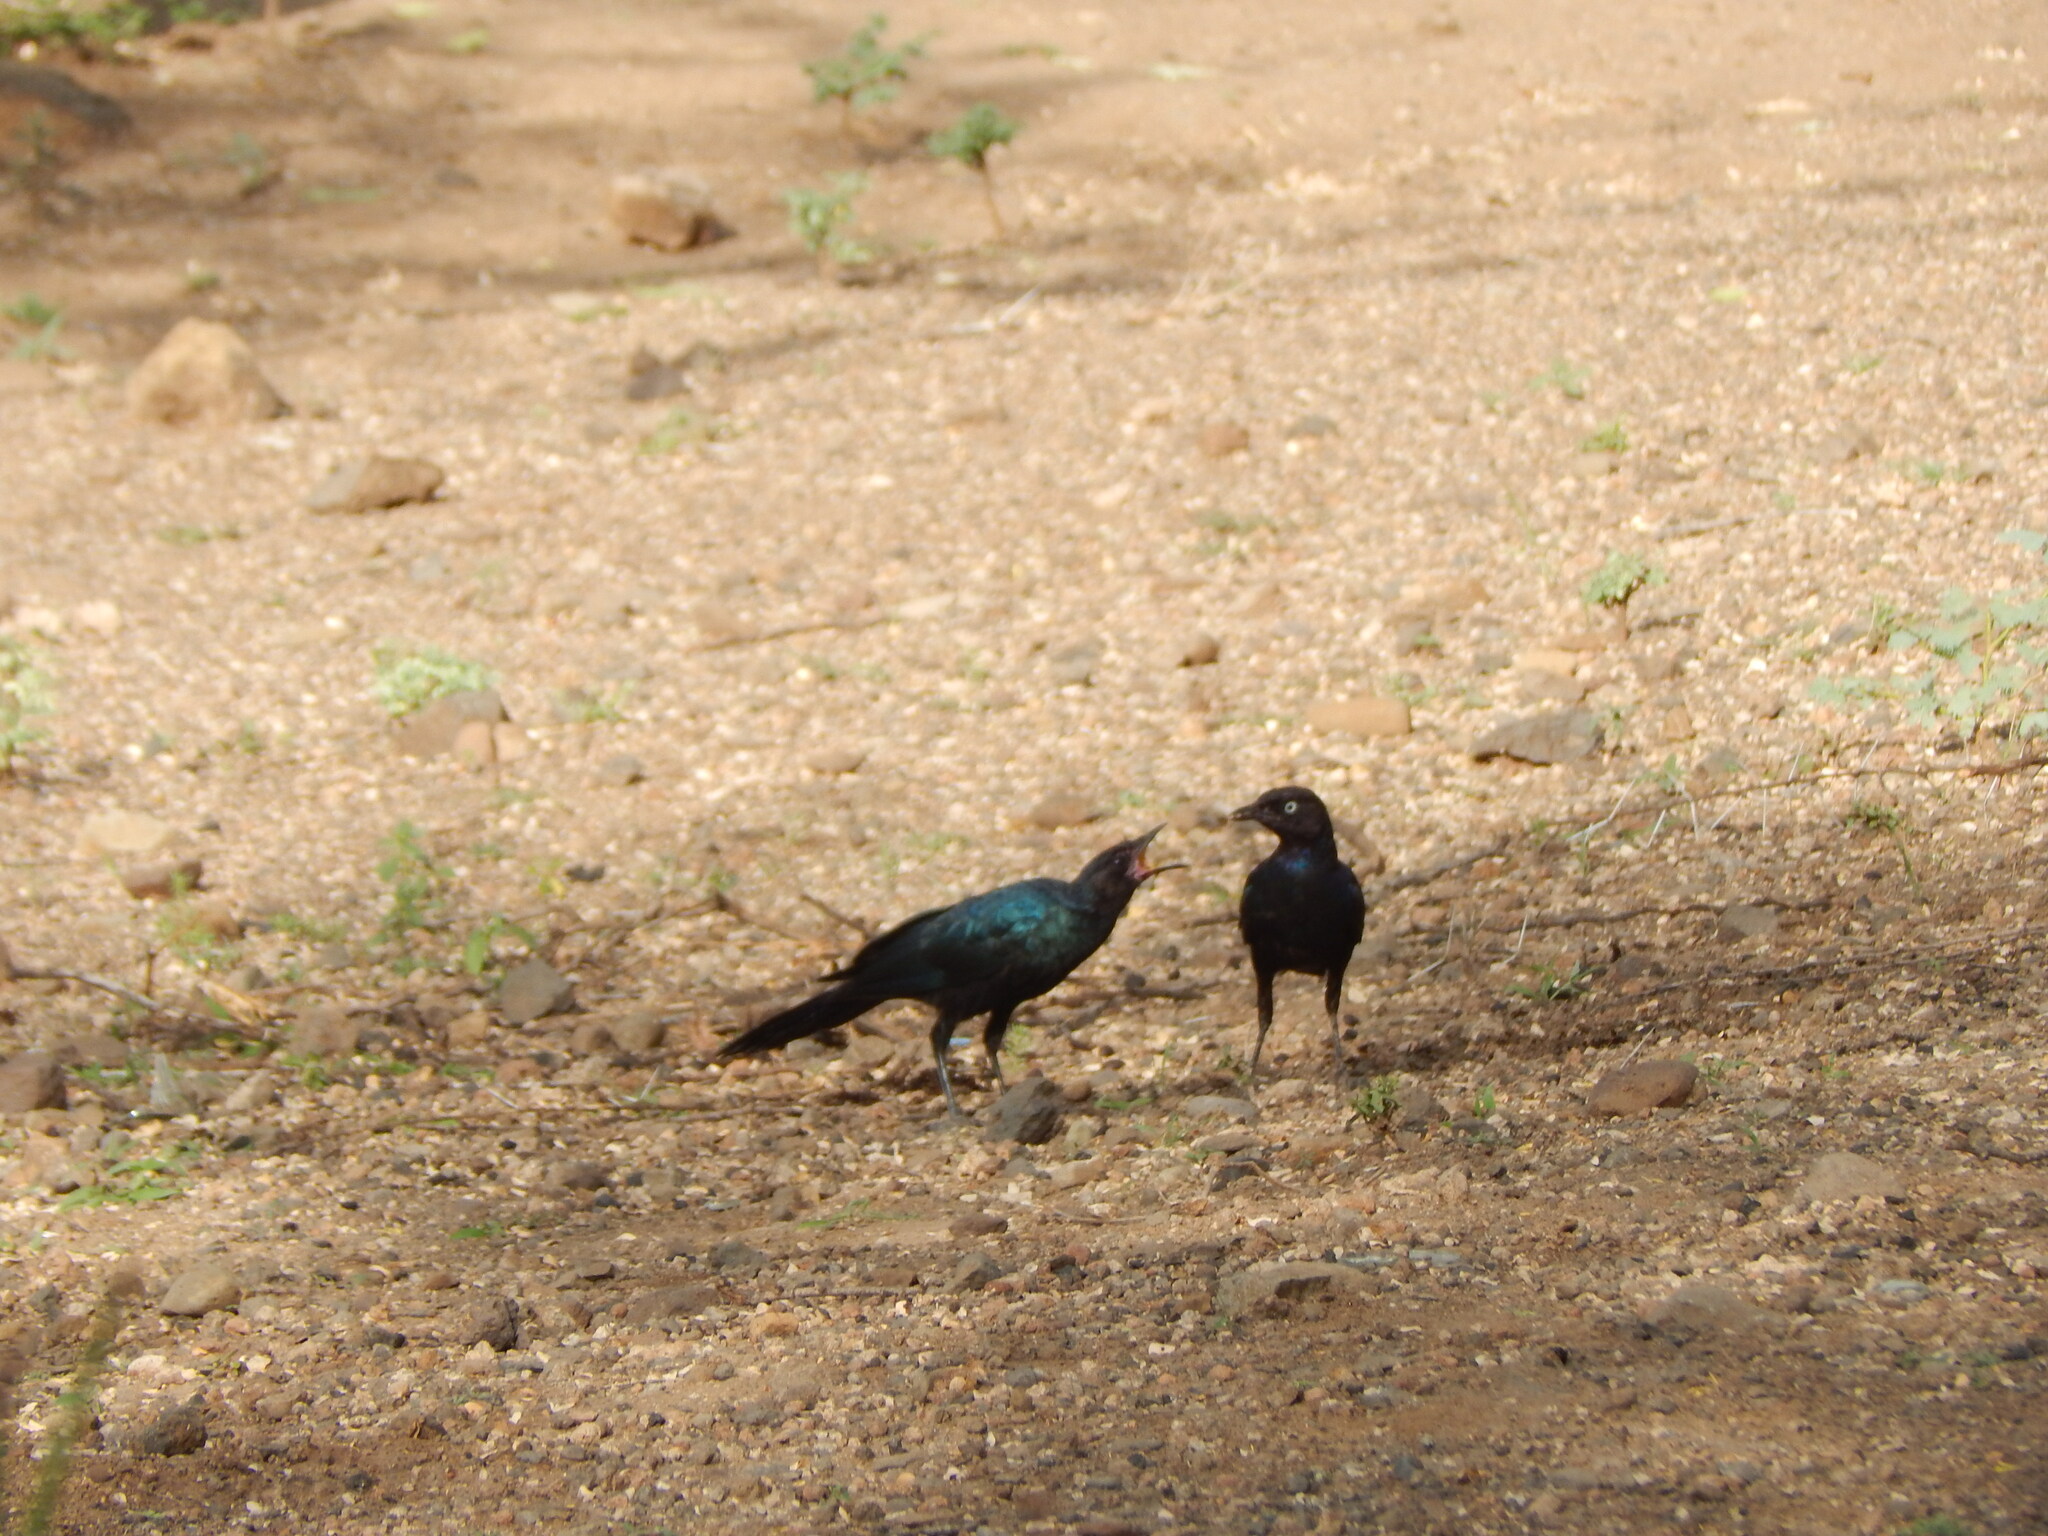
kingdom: Animalia
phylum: Chordata
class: Aves
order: Passeriformes
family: Sturnidae
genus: Lamprotornis
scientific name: Lamprotornis purpuroptera
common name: Rüppell's starling
